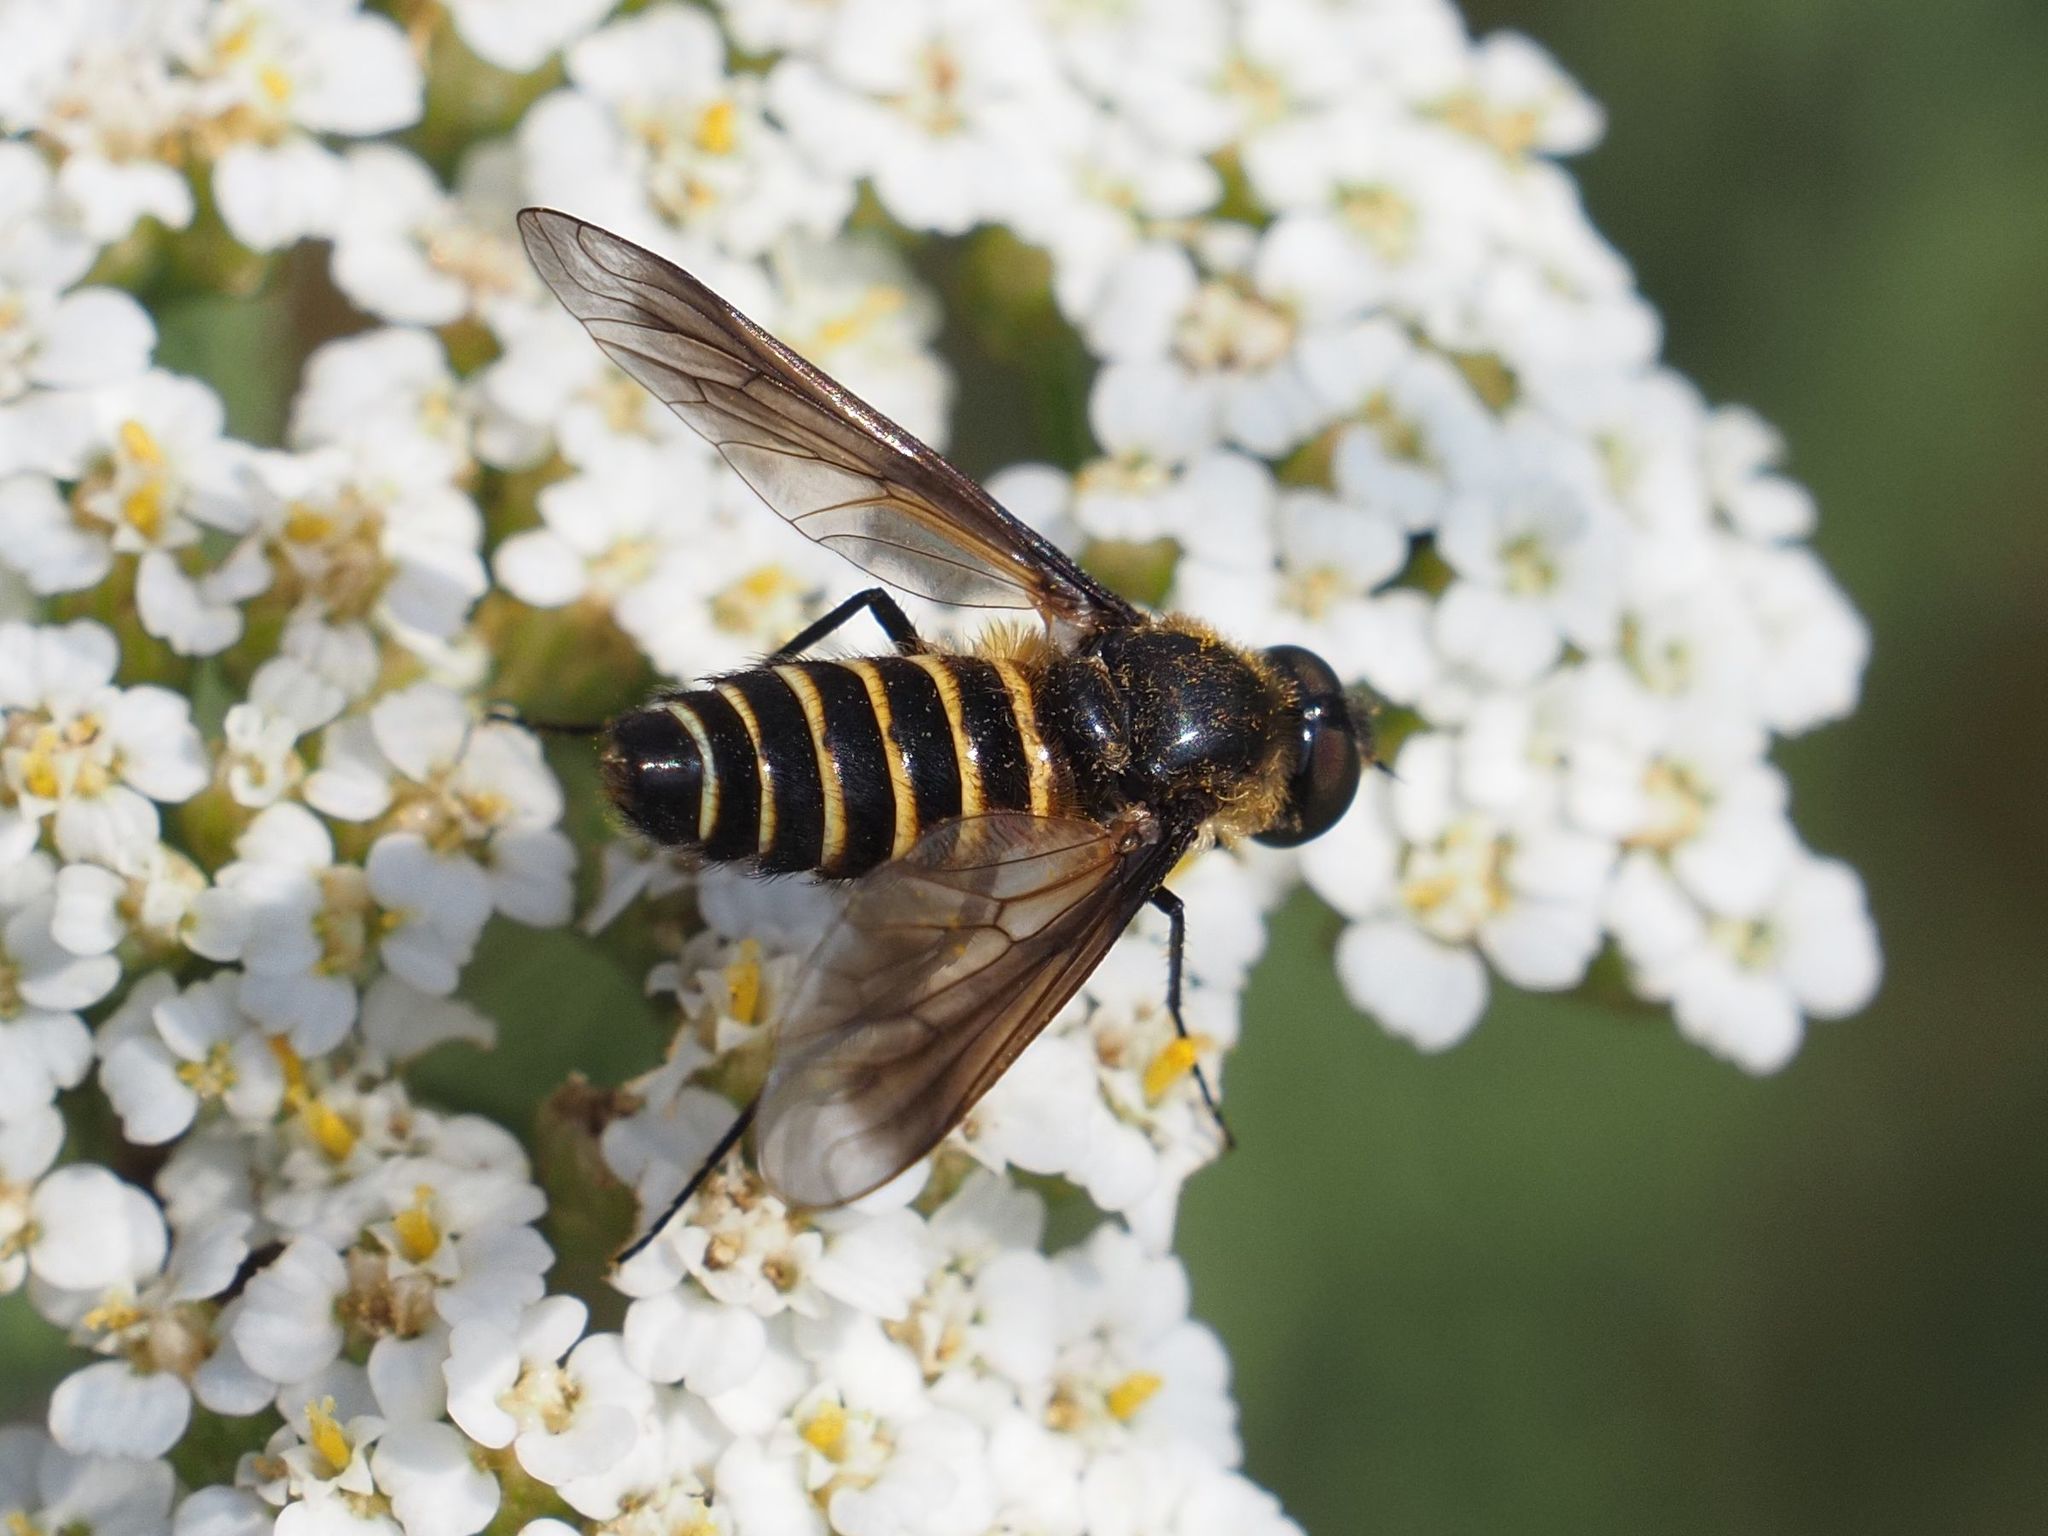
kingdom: Animalia
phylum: Arthropoda
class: Insecta
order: Diptera
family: Bombyliidae
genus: Lomatia
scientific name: Lomatia lateralis
